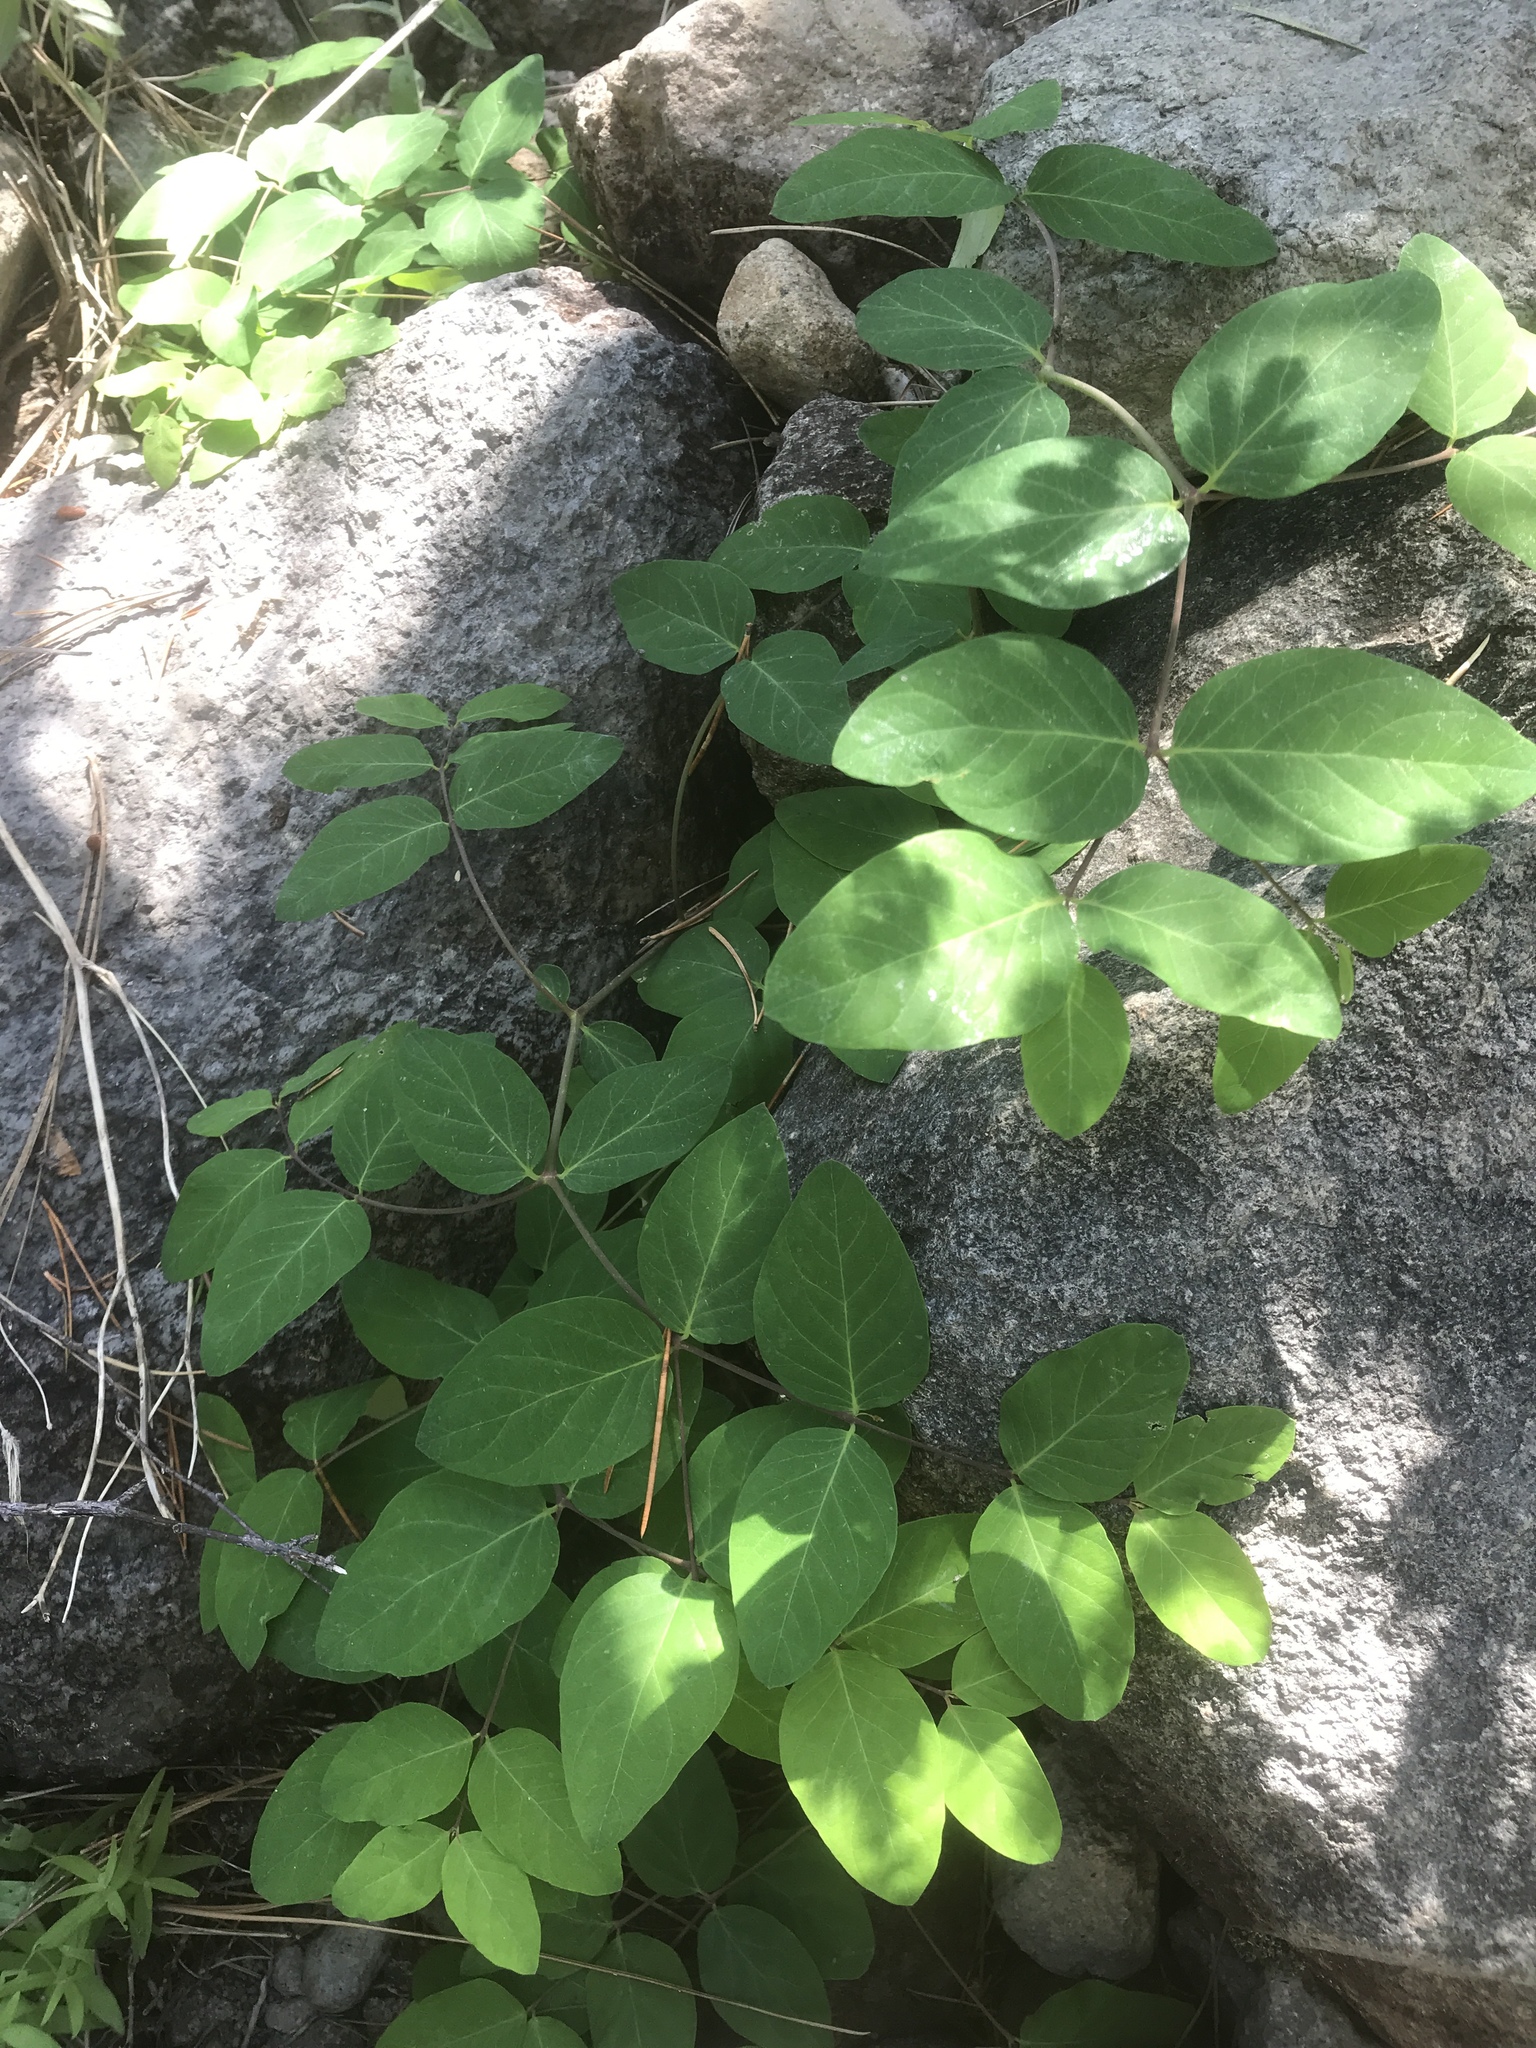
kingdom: Plantae
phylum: Tracheophyta
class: Magnoliopsida
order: Gentianales
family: Apocynaceae
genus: Apocynum
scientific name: Apocynum androsaemifolium
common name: Spreading dogbane
